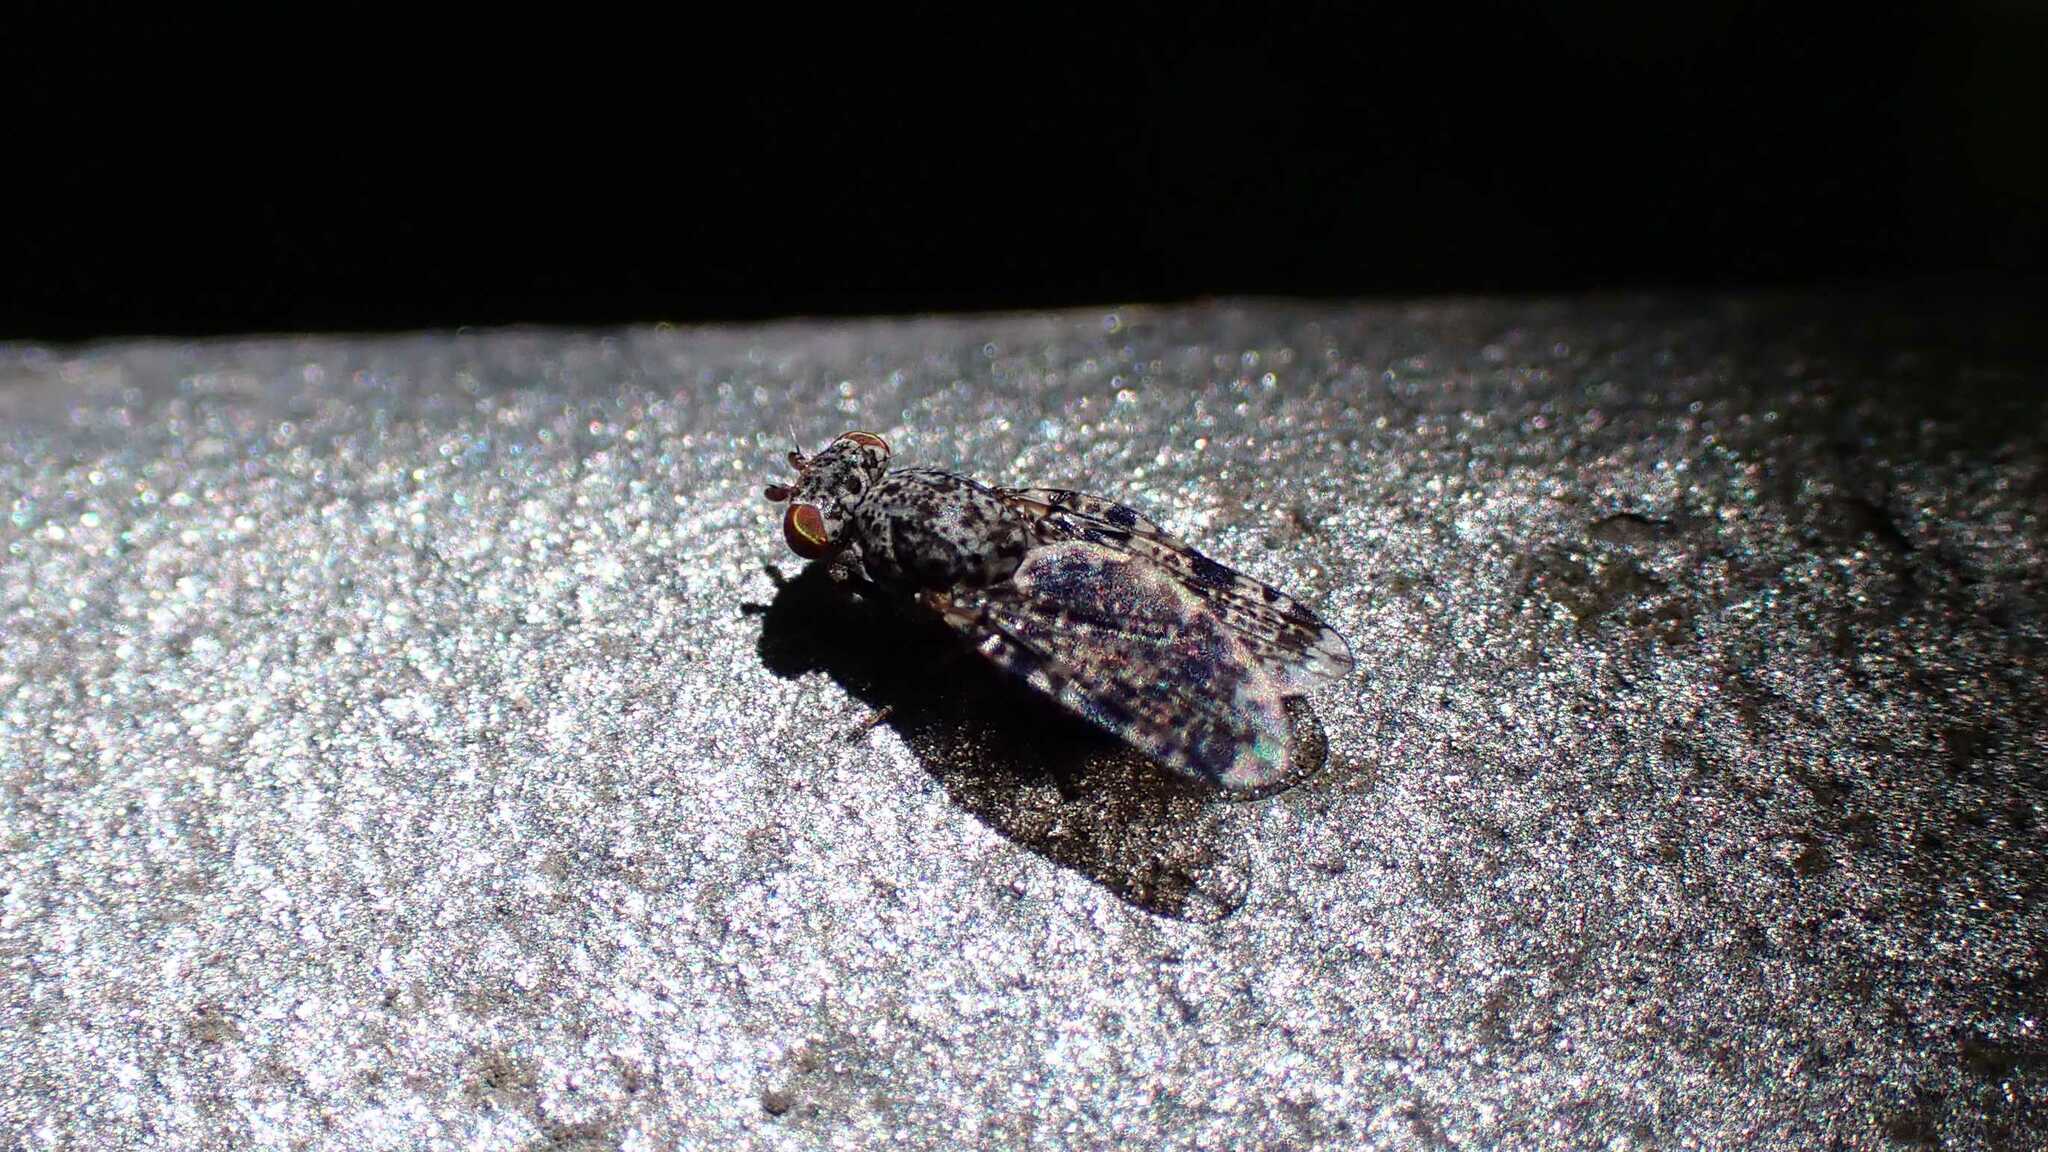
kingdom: Animalia
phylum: Arthropoda
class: Insecta
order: Diptera
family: Ulidiidae
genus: Callopistromyia
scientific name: Callopistromyia annulipes
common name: Peacock fly
